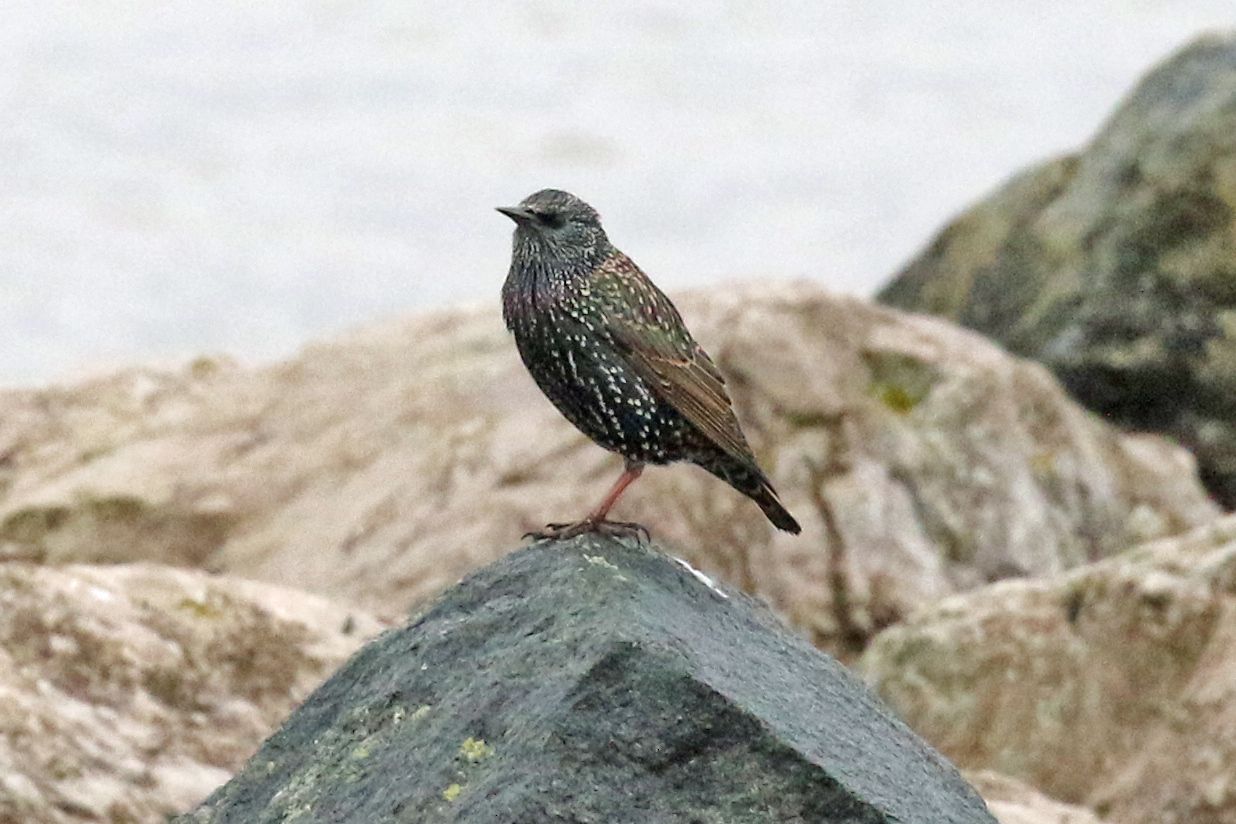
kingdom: Animalia
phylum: Chordata
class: Aves
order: Passeriformes
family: Sturnidae
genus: Sturnus
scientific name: Sturnus vulgaris
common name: Common starling
